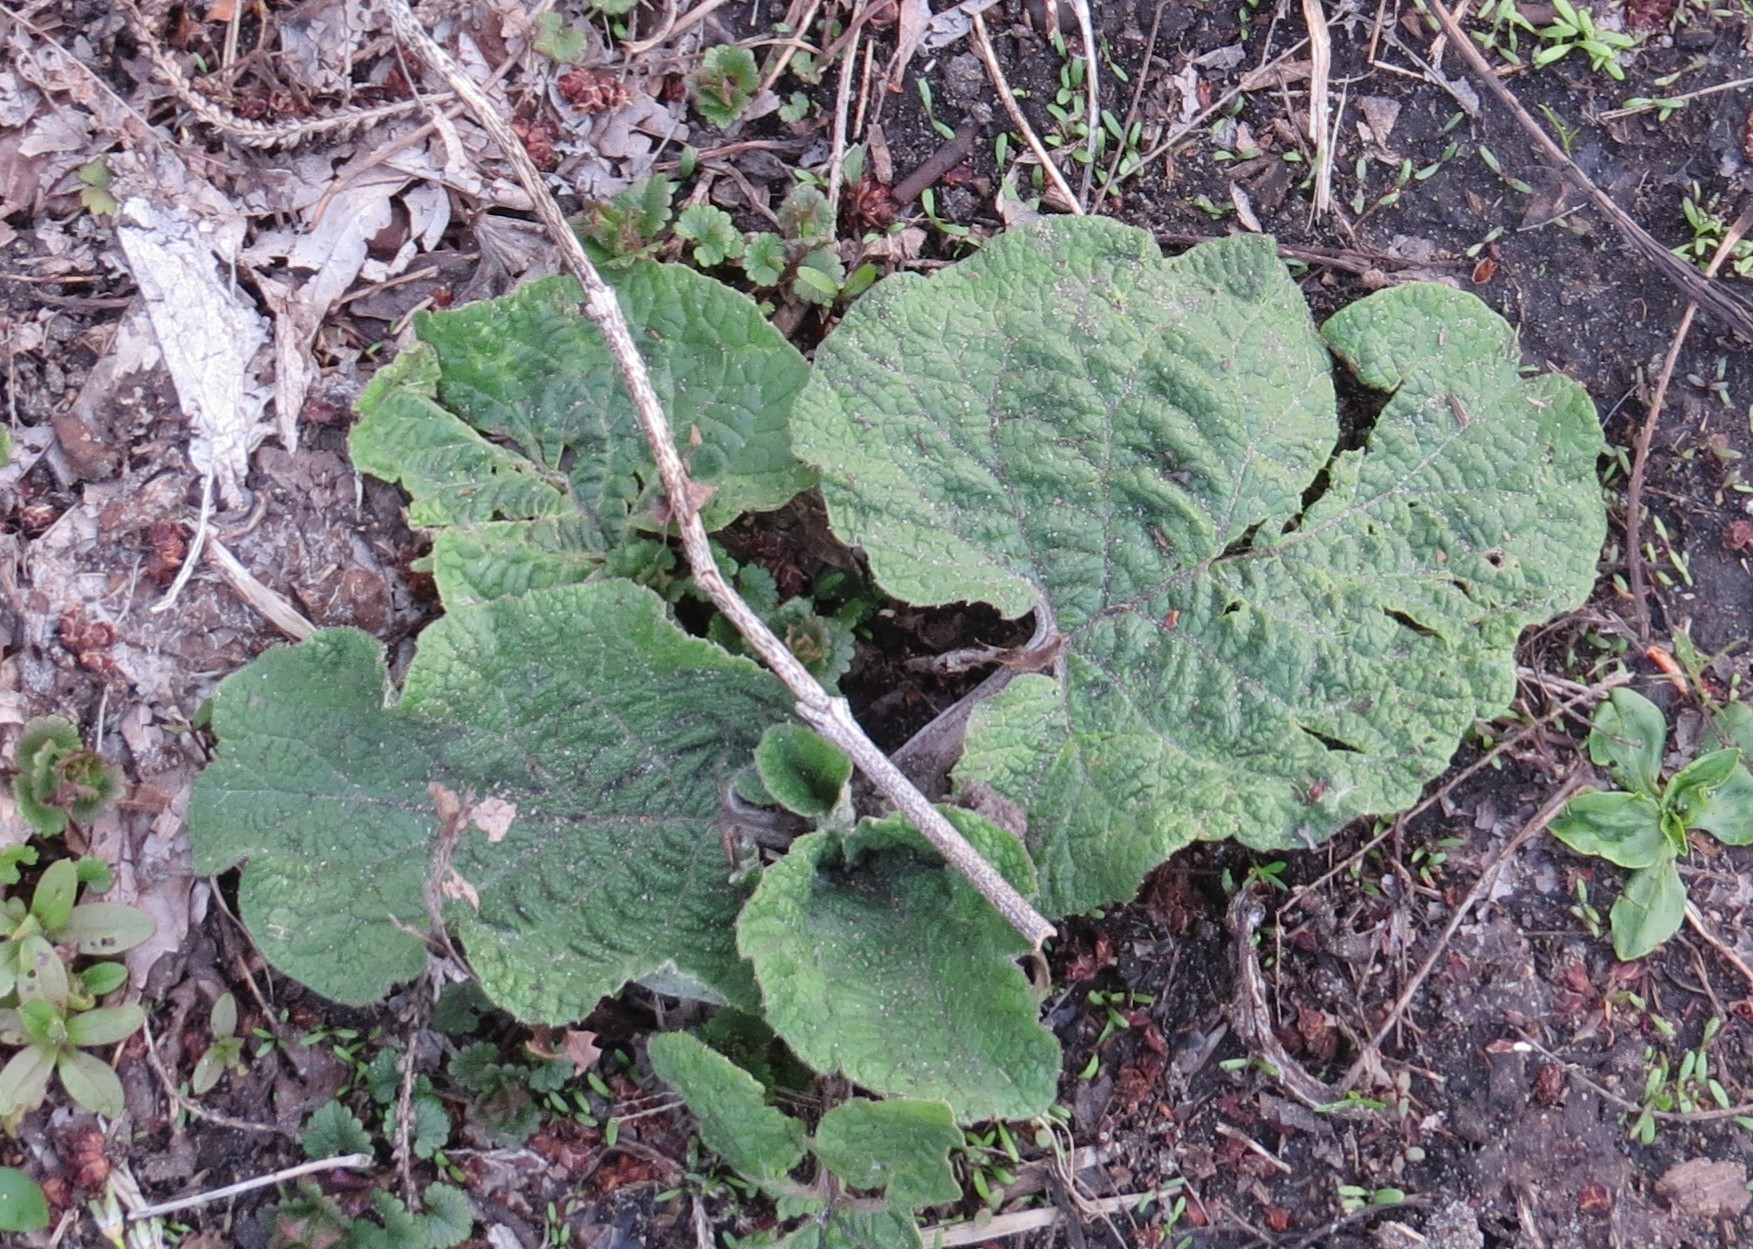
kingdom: Plantae
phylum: Tracheophyta
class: Magnoliopsida
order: Asterales
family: Asteraceae
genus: Arctium
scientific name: Arctium
